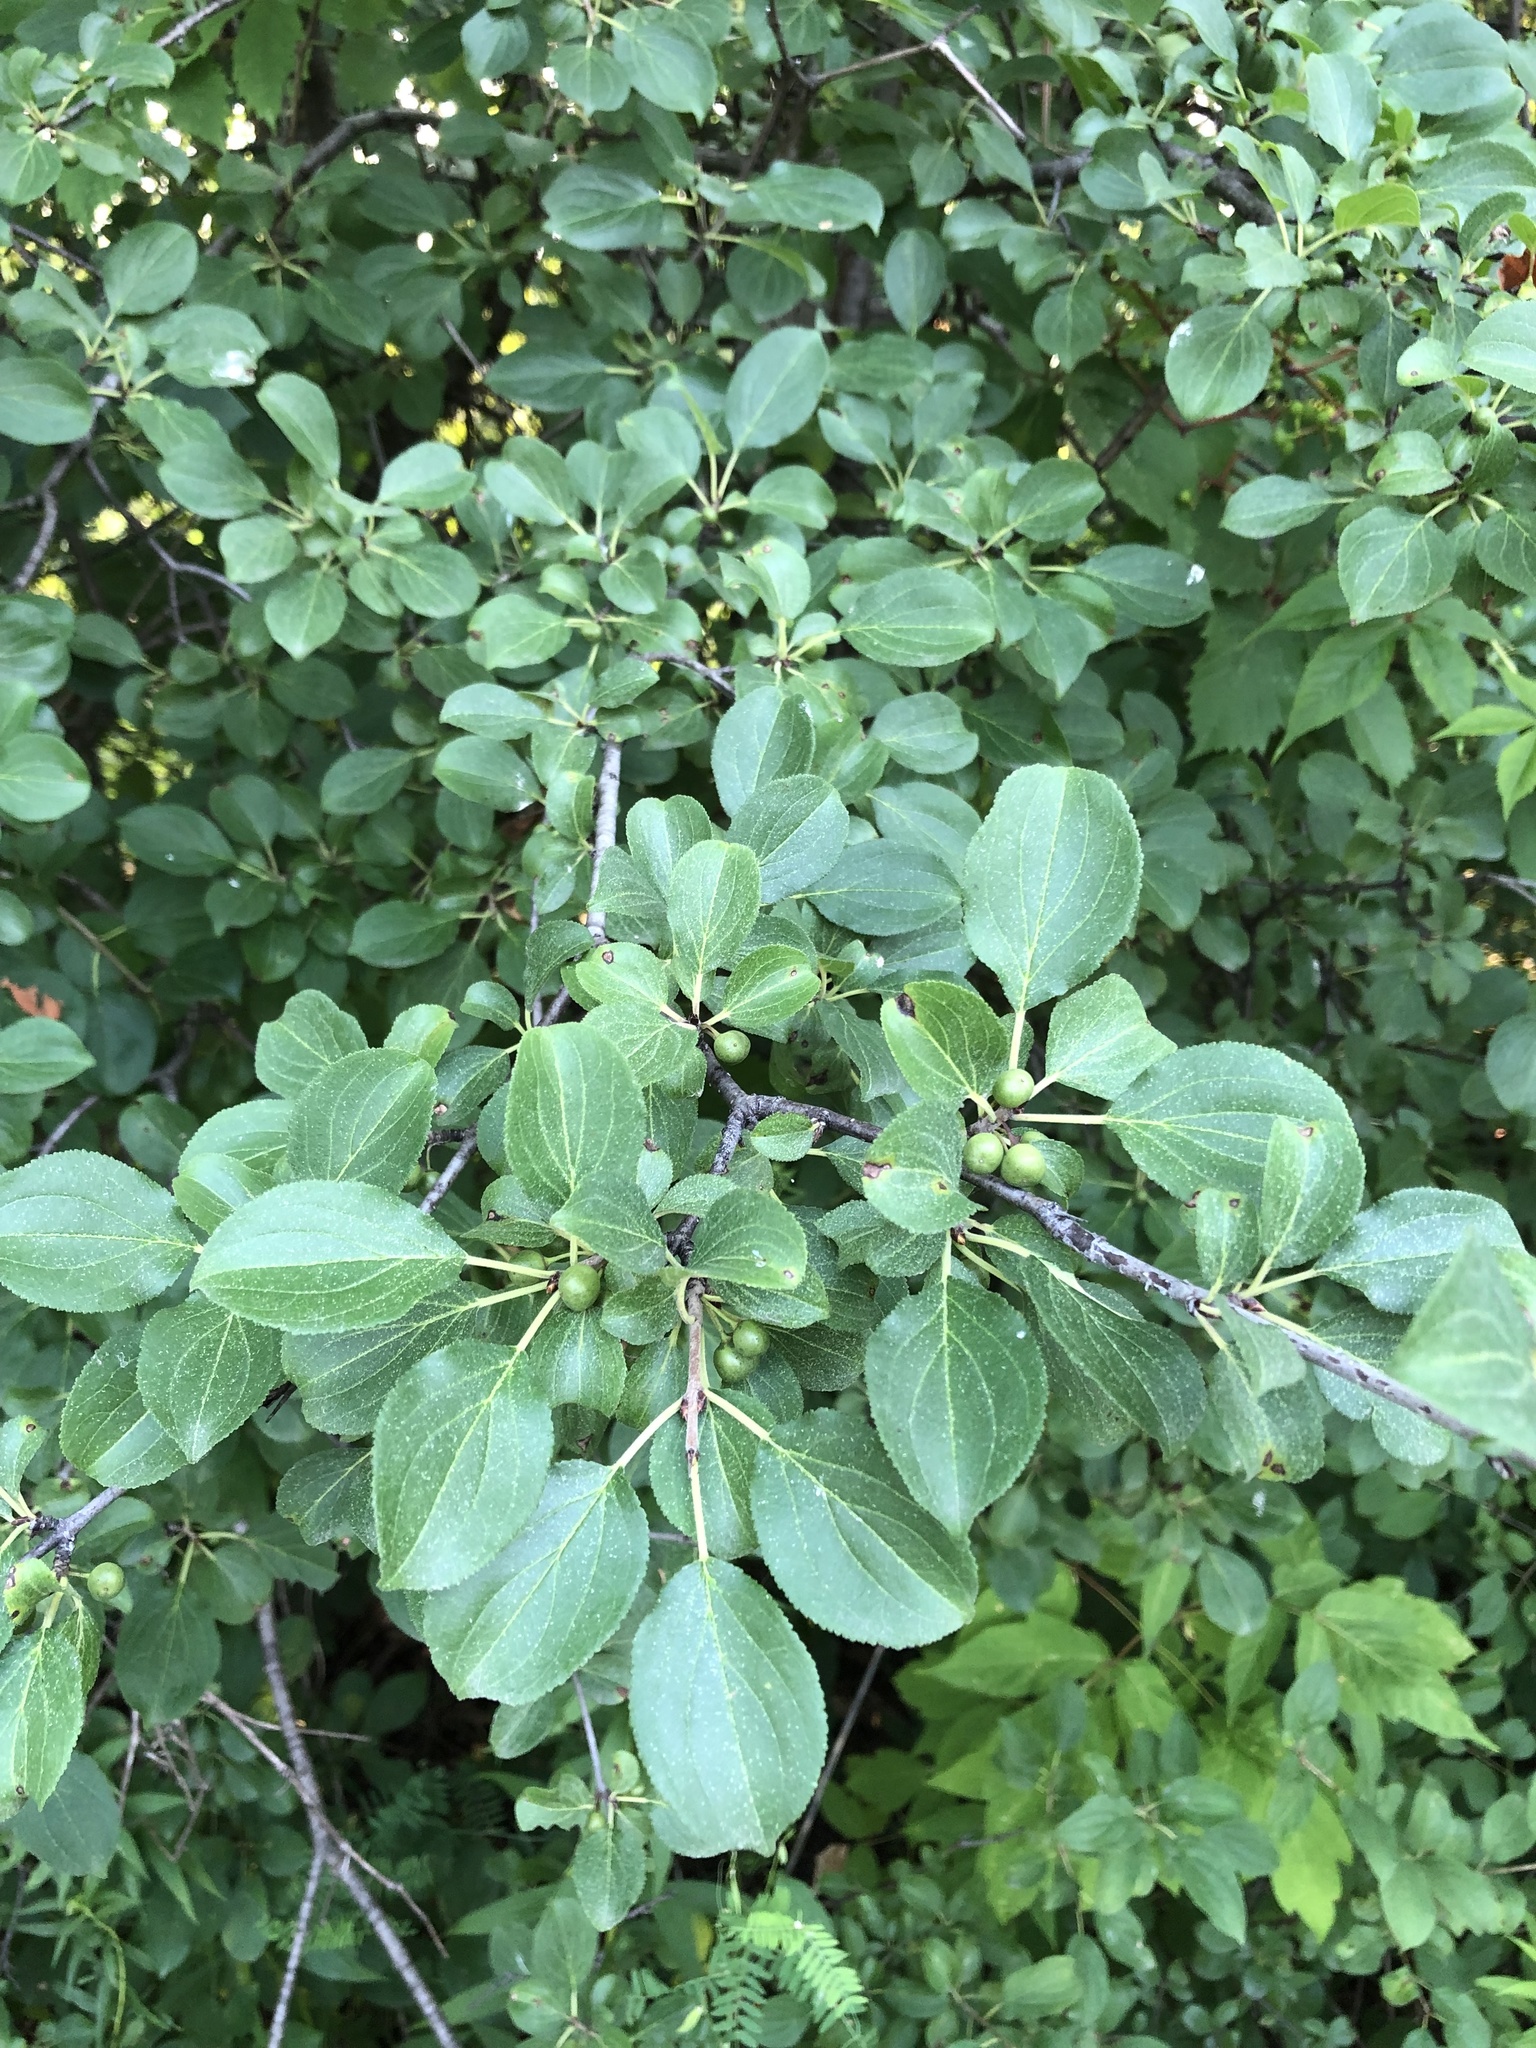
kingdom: Plantae
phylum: Tracheophyta
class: Magnoliopsida
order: Rosales
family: Rhamnaceae
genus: Rhamnus
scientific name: Rhamnus cathartica
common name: Common buckthorn
